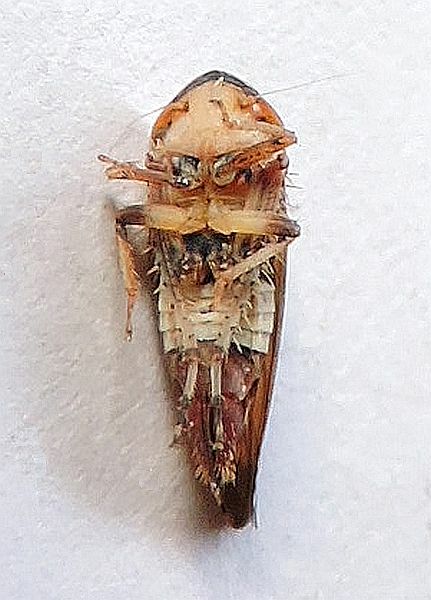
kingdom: Animalia
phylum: Arthropoda
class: Insecta
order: Hemiptera
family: Cicadellidae
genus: Fieberiella
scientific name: Fieberiella florii
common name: Flor’s leafhopper
